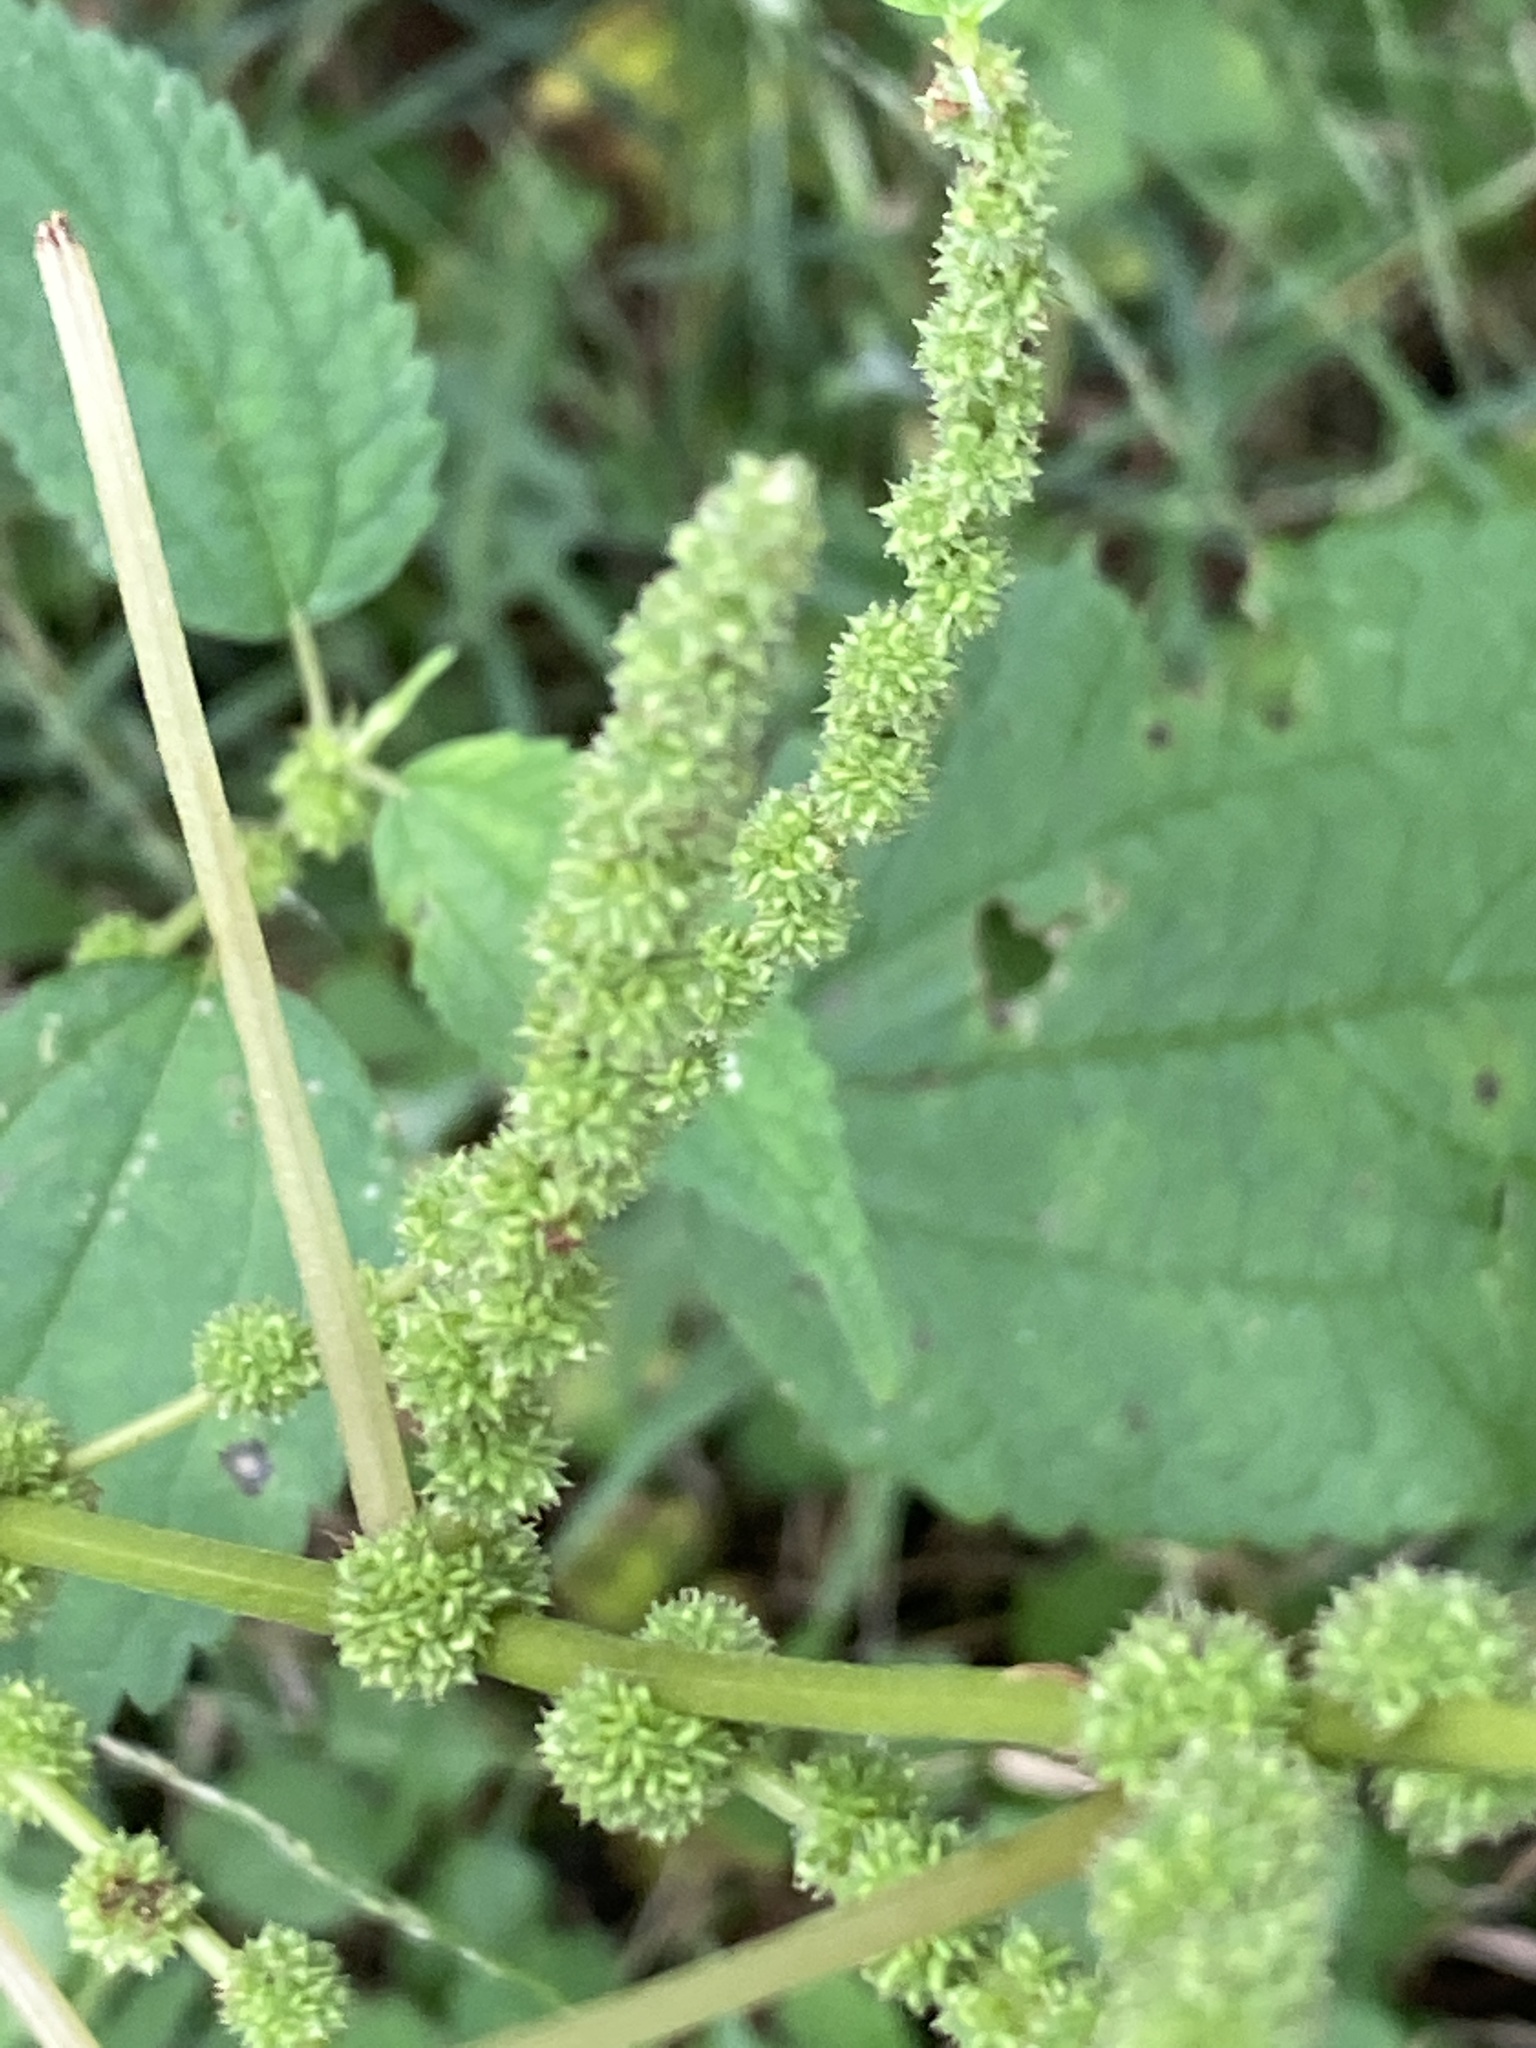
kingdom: Plantae
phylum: Tracheophyta
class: Magnoliopsida
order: Rosales
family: Urticaceae
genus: Boehmeria
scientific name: Boehmeria cylindrica
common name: Bog-hemp
